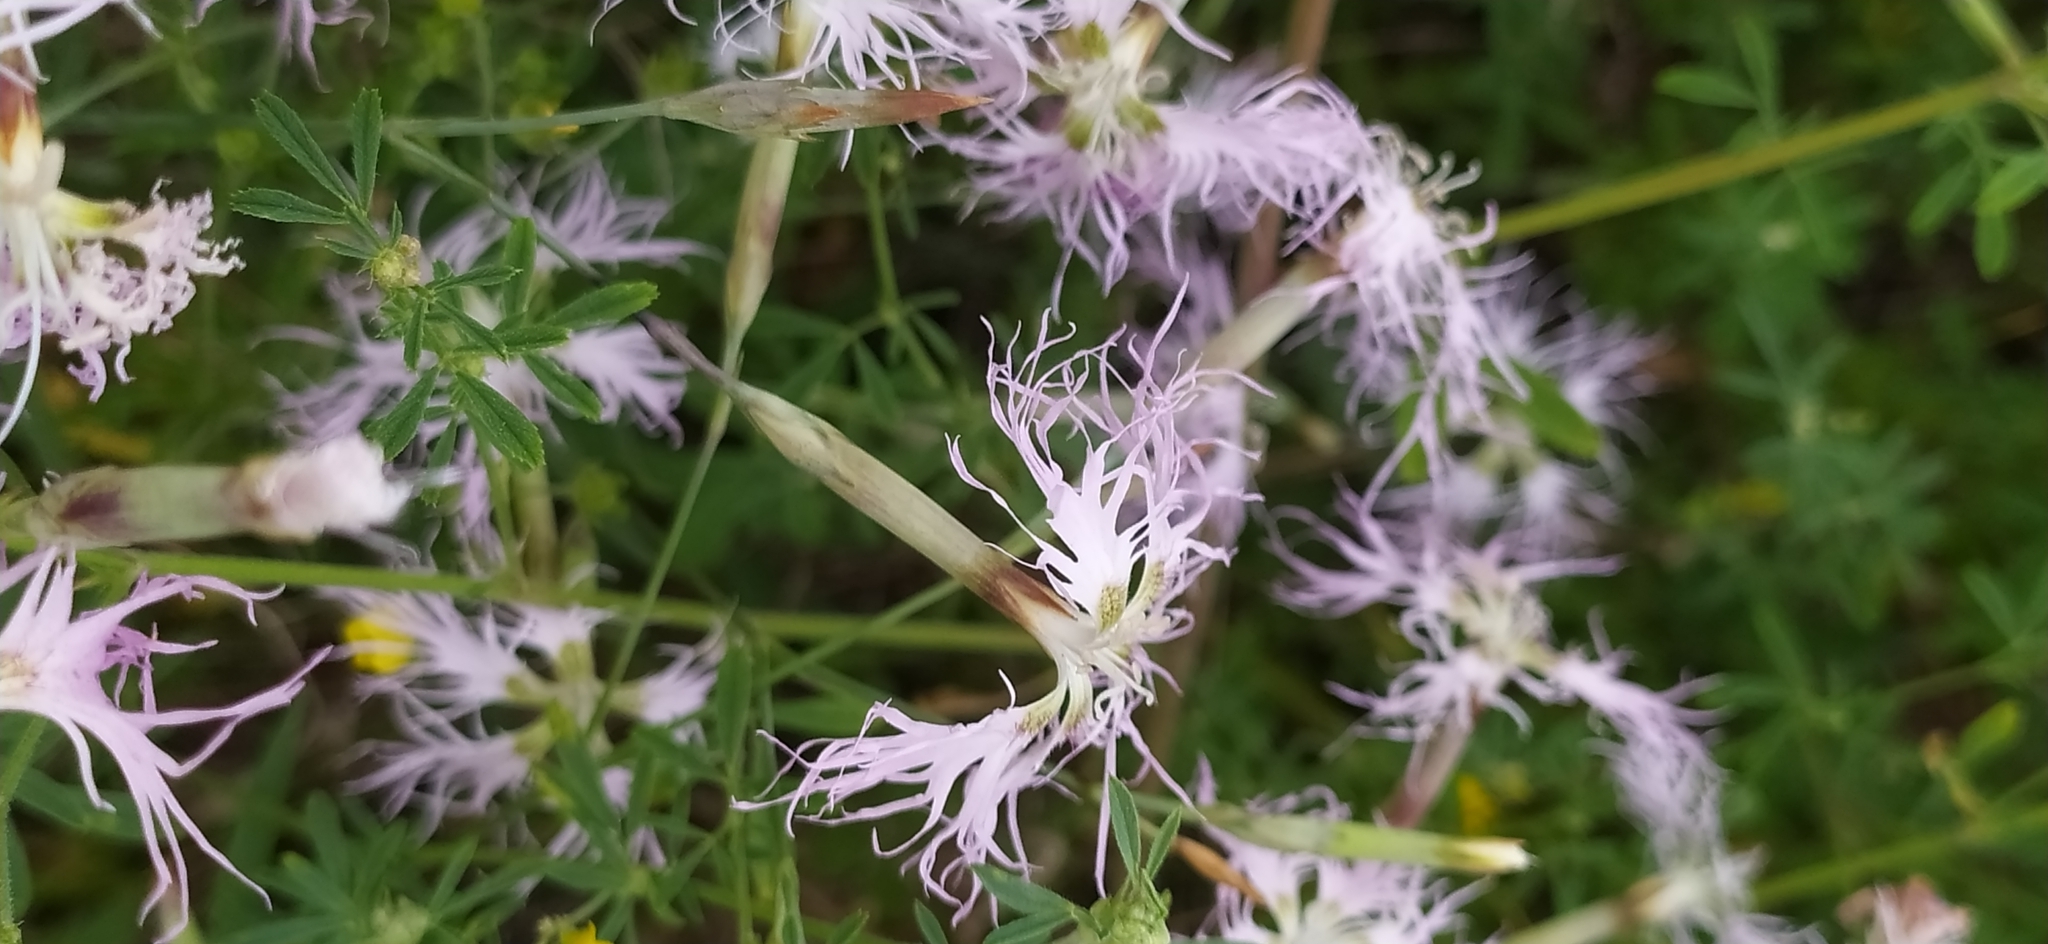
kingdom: Plantae
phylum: Tracheophyta
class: Magnoliopsida
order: Caryophyllales
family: Caryophyllaceae
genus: Dianthus
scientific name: Dianthus superbus
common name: Fringed pink
